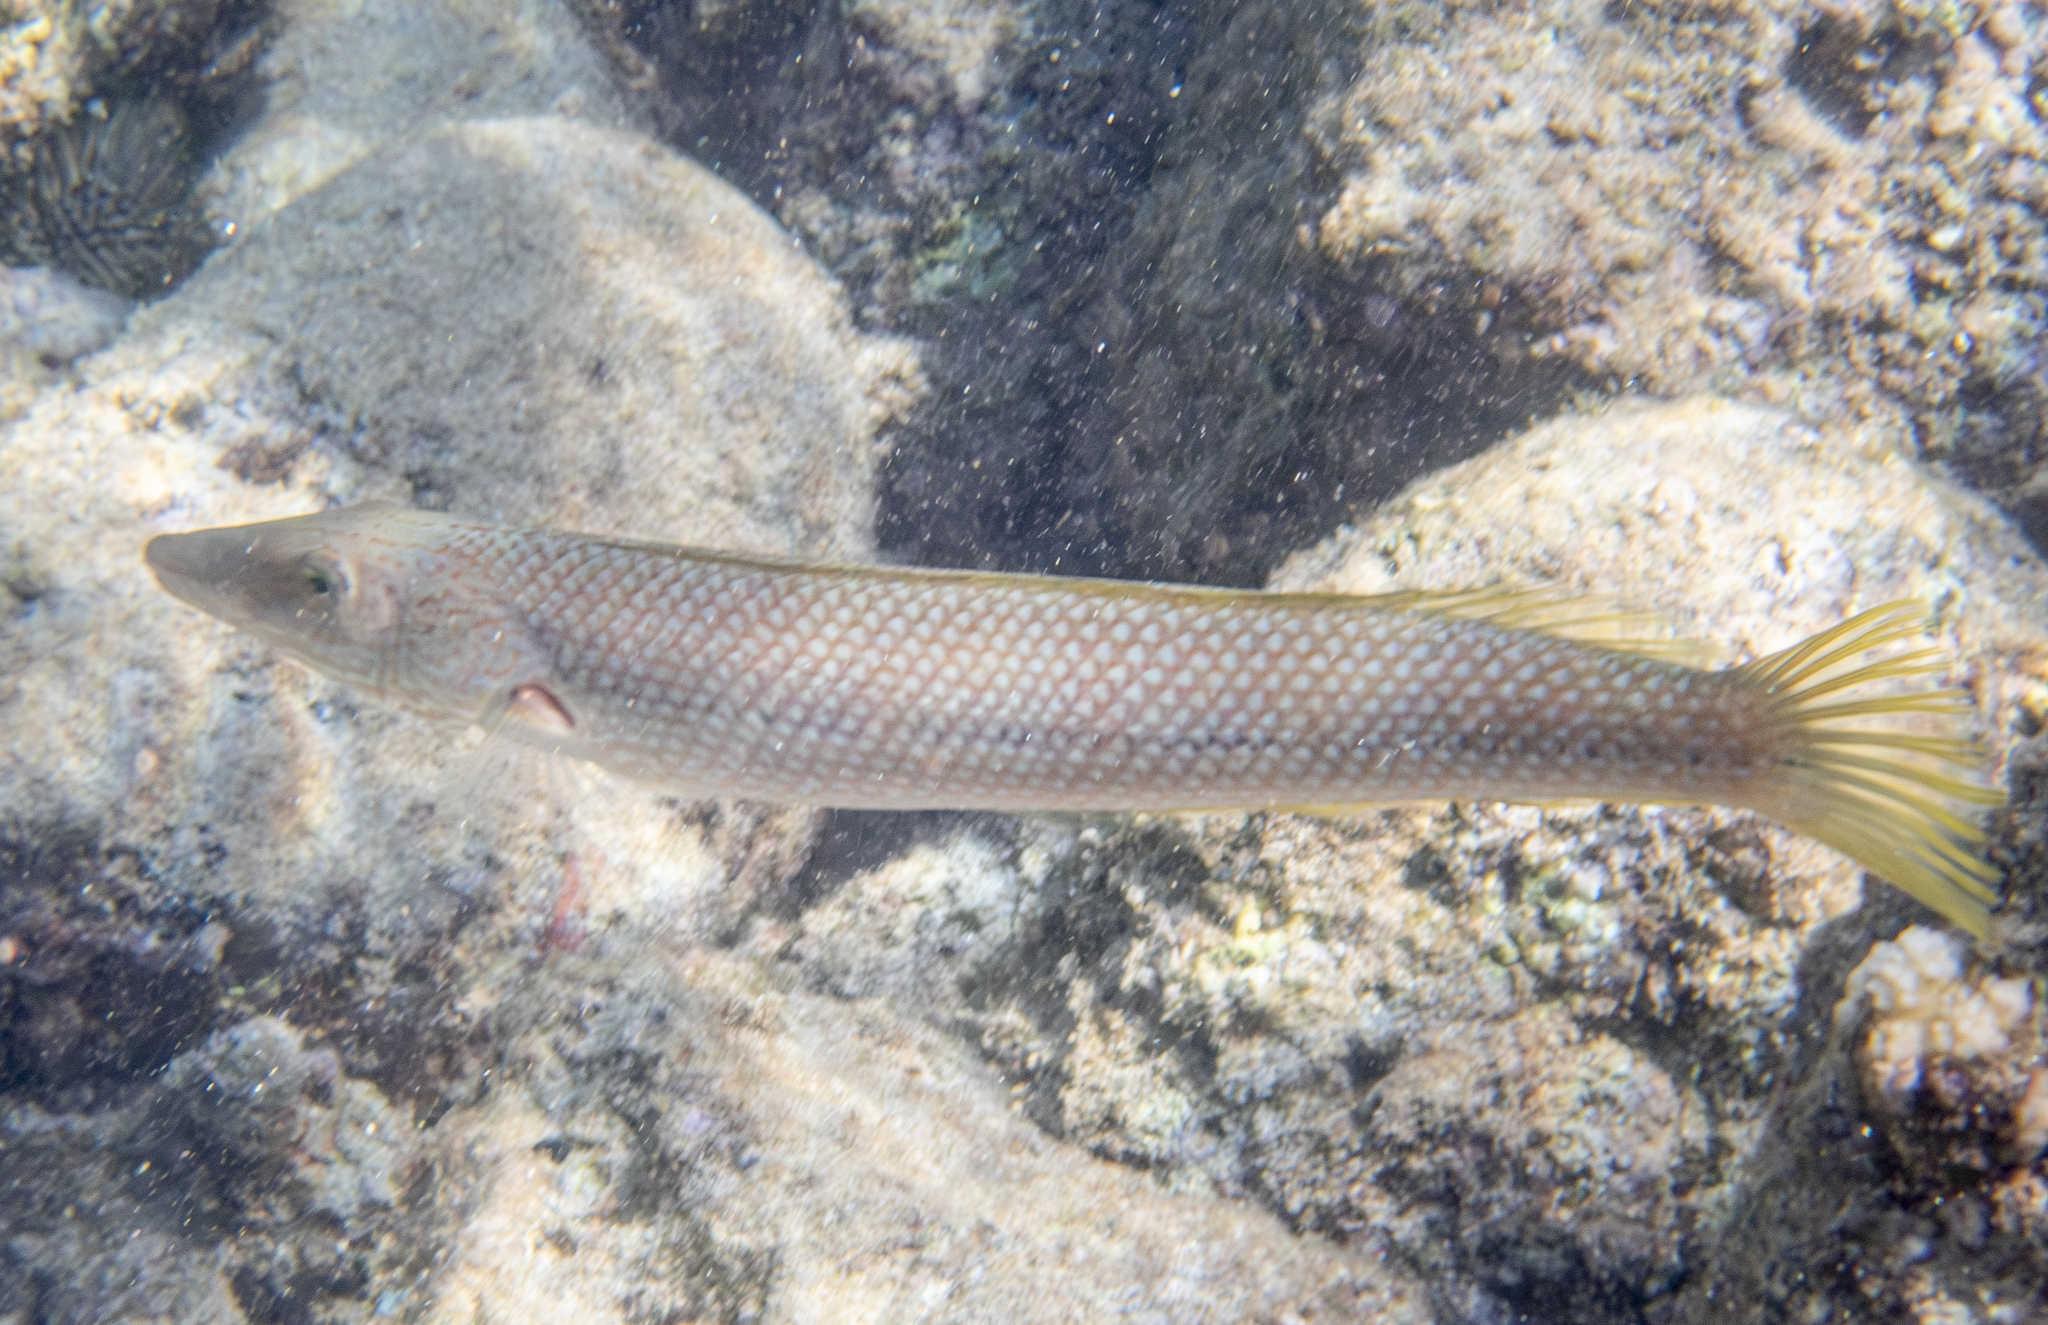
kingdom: Animalia
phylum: Chordata
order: Perciformes
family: Labridae
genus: Cheilio
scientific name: Cheilio inermis
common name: Cigar wrasse
